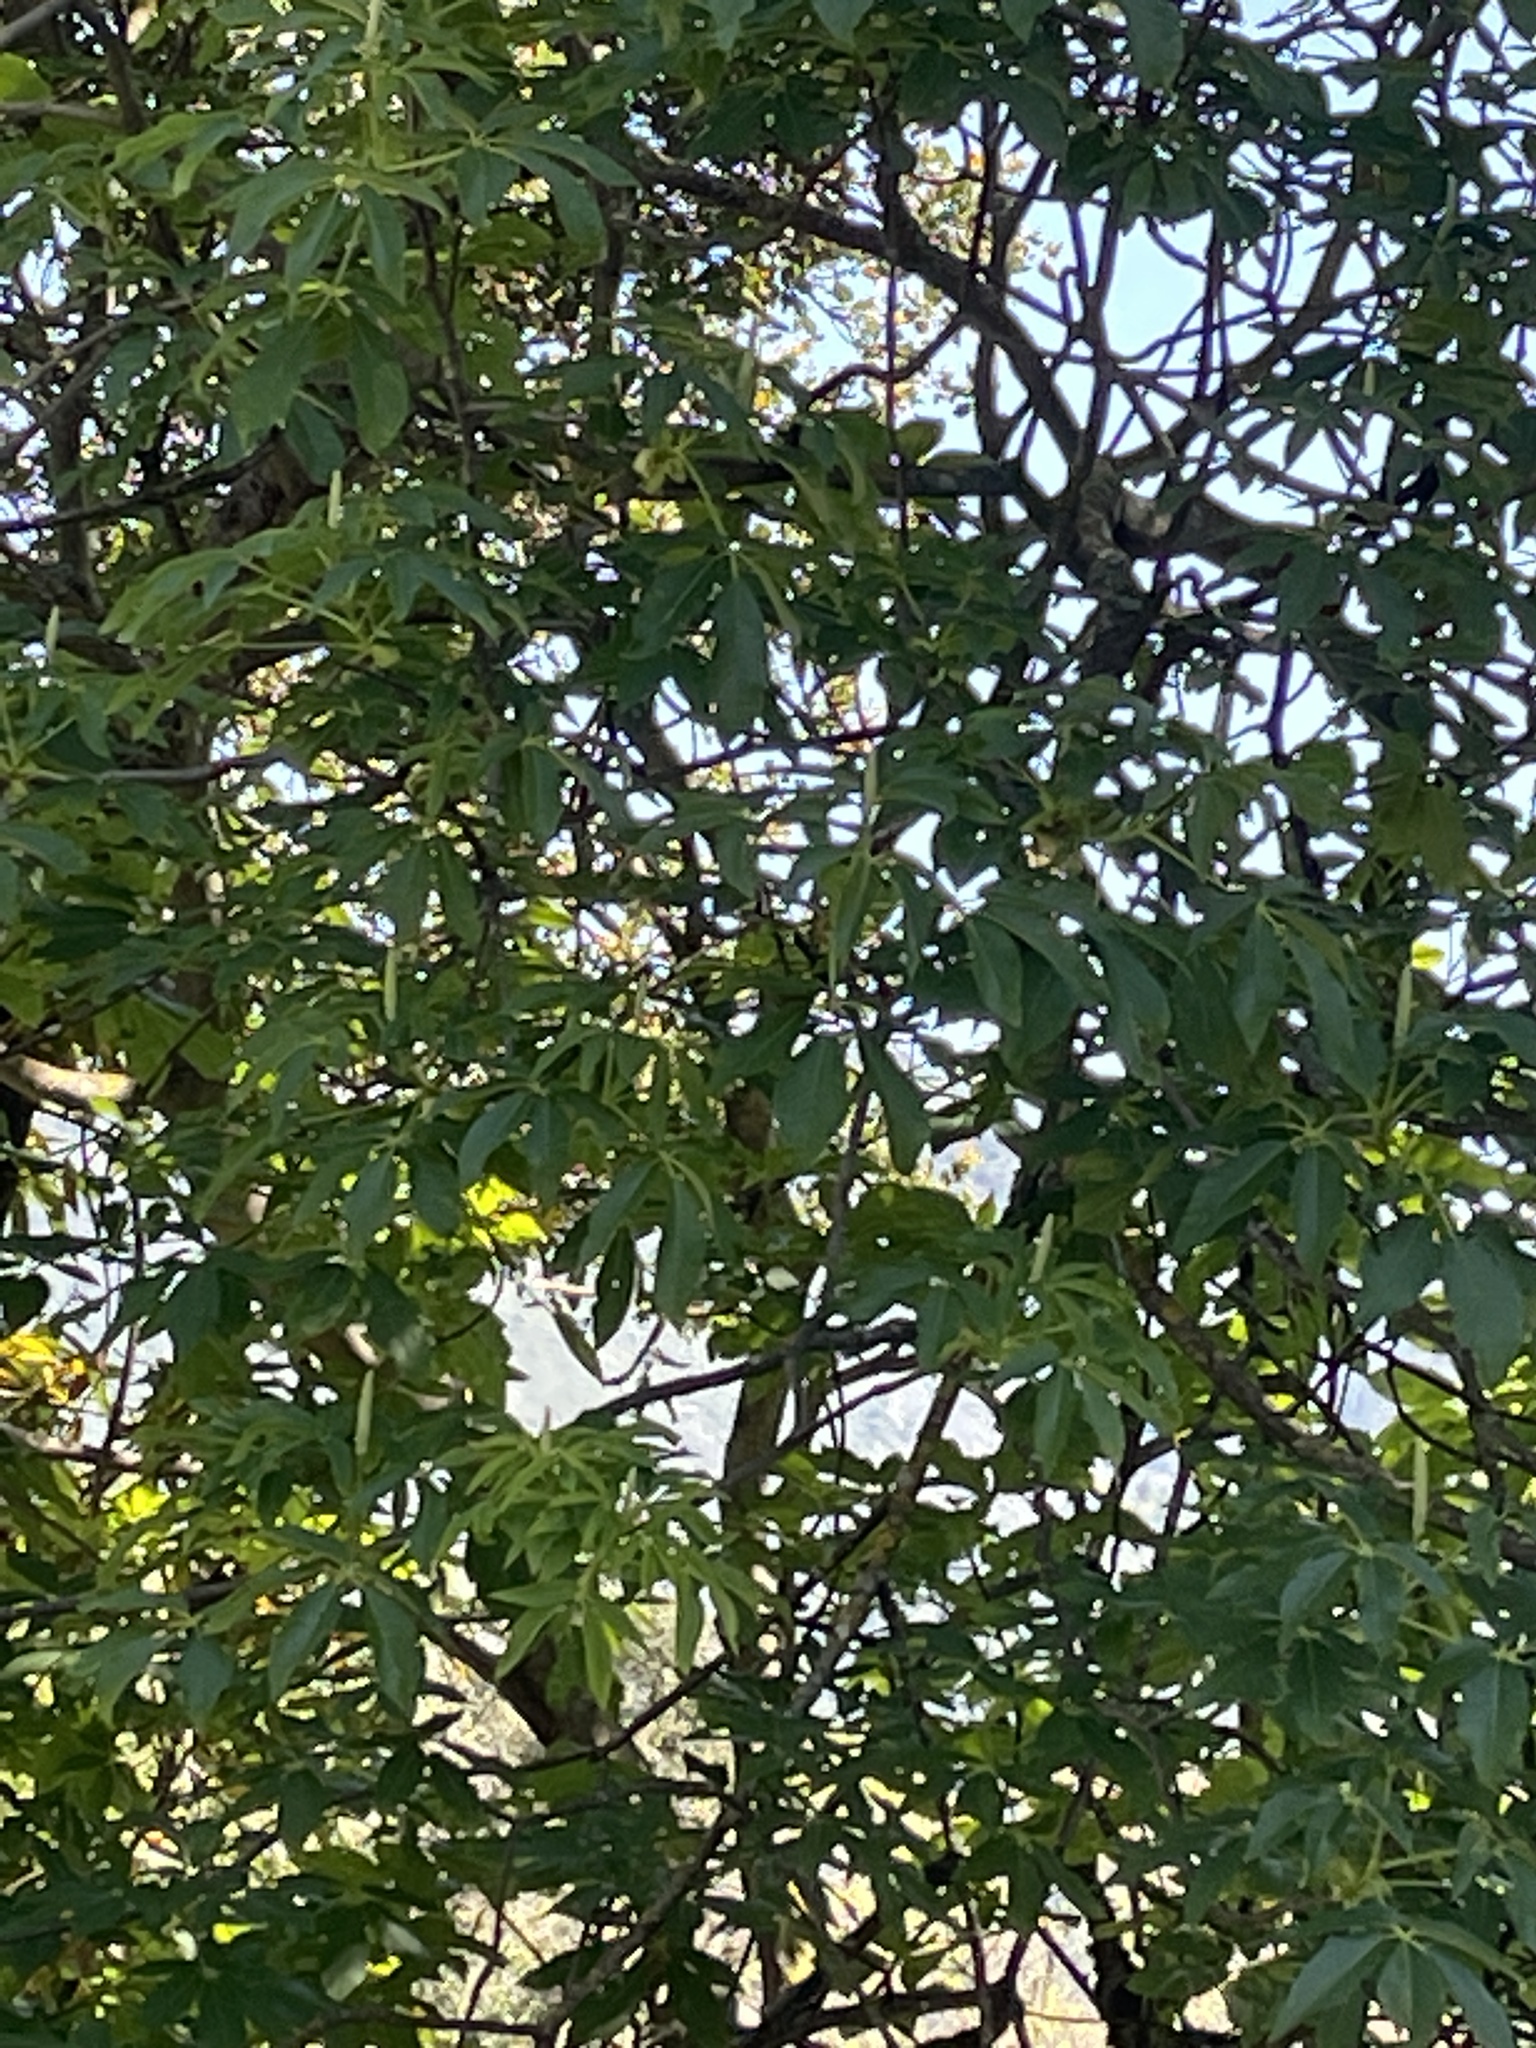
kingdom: Plantae
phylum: Tracheophyta
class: Magnoliopsida
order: Sapindales
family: Sapindaceae
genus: Aesculus
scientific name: Aesculus californica
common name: California buckeye
